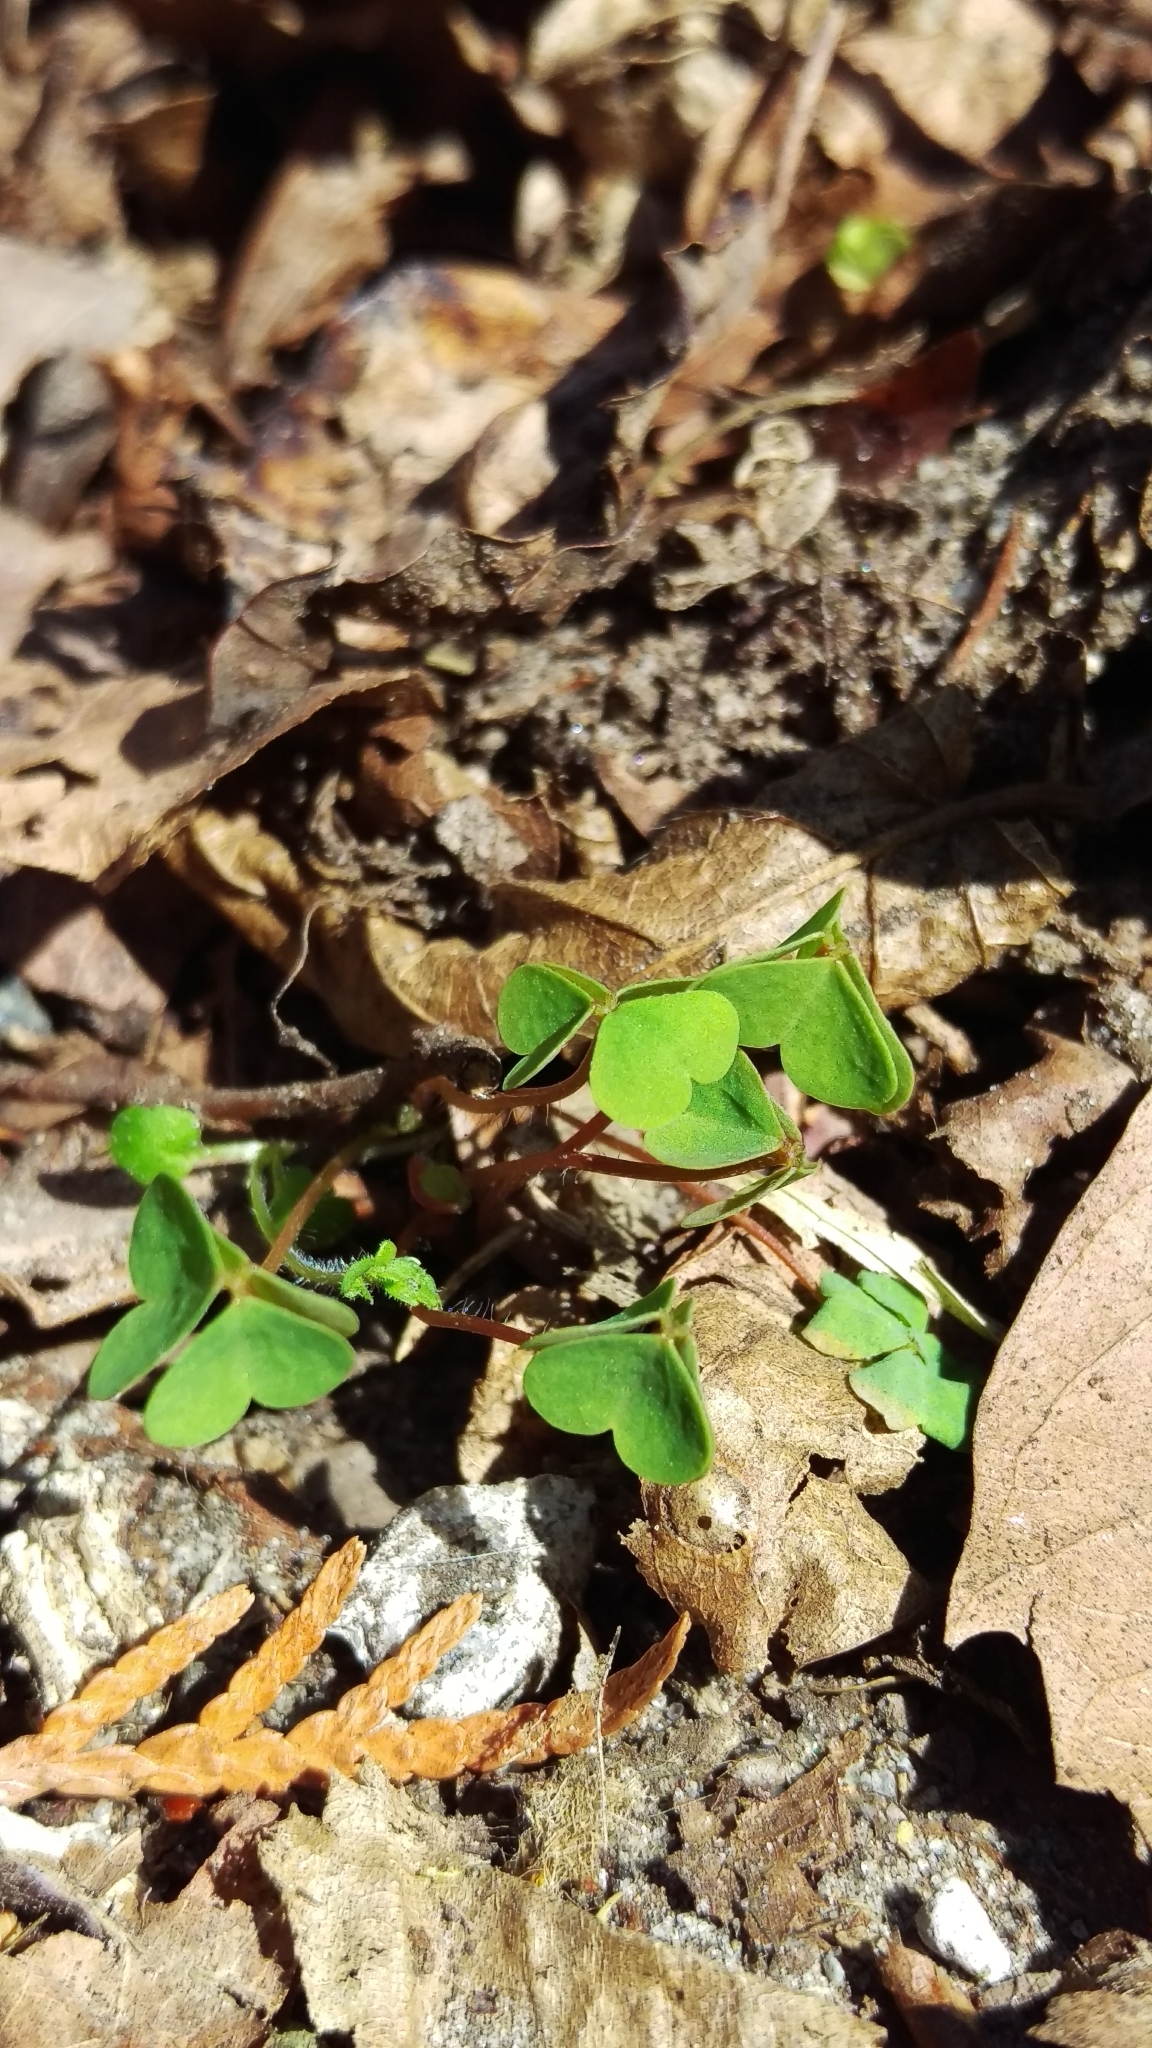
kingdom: Plantae
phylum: Tracheophyta
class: Magnoliopsida
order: Oxalidales
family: Oxalidaceae
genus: Oxalis
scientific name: Oxalis corniculata
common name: Procumbent yellow-sorrel
